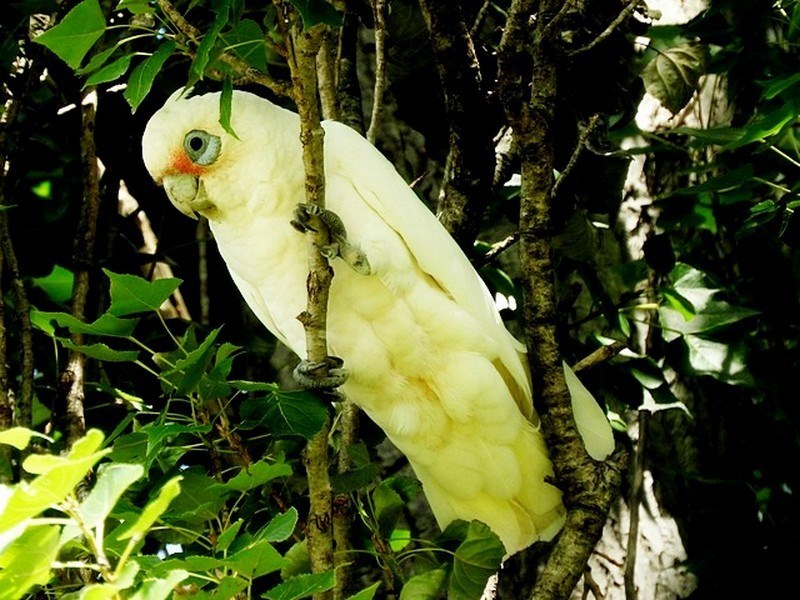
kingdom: Animalia
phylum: Chordata
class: Aves
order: Psittaciformes
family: Psittacidae
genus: Cacatua
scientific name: Cacatua sanguinea
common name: Little corella
